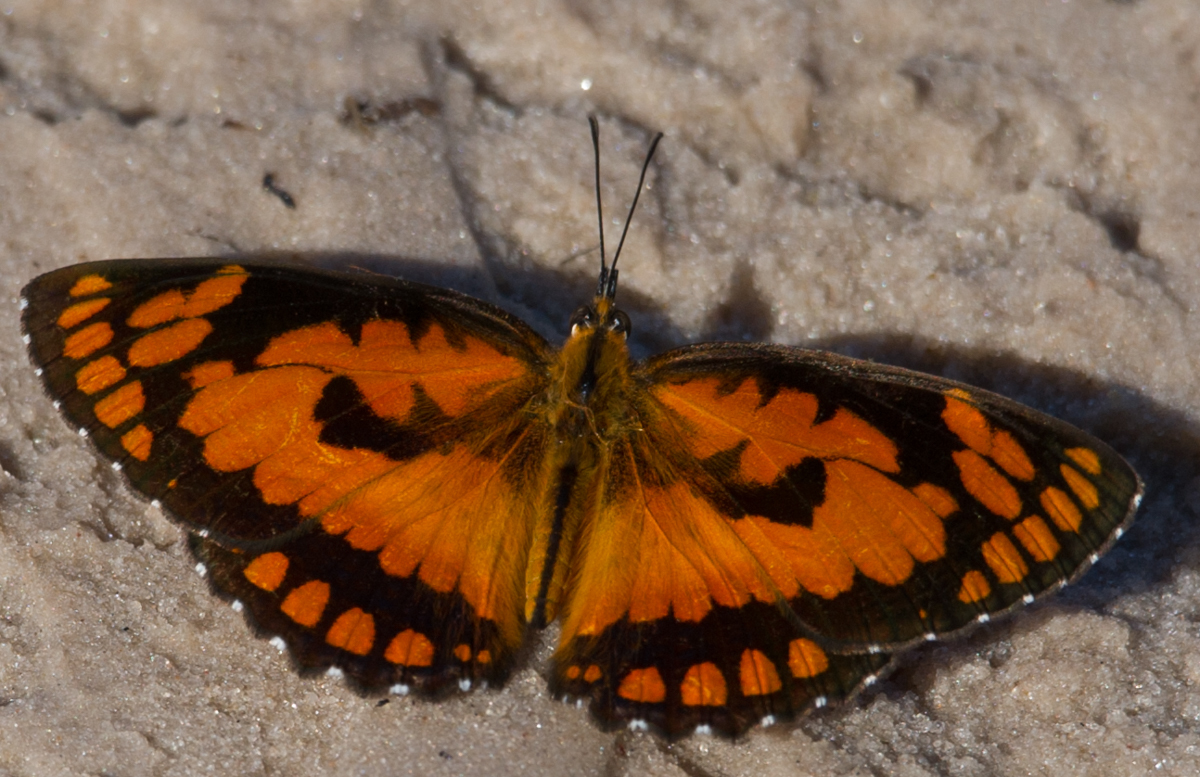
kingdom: Animalia
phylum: Arthropoda
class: Insecta
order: Lepidoptera
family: Nymphalidae
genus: Byblia
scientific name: Byblia acheloia
